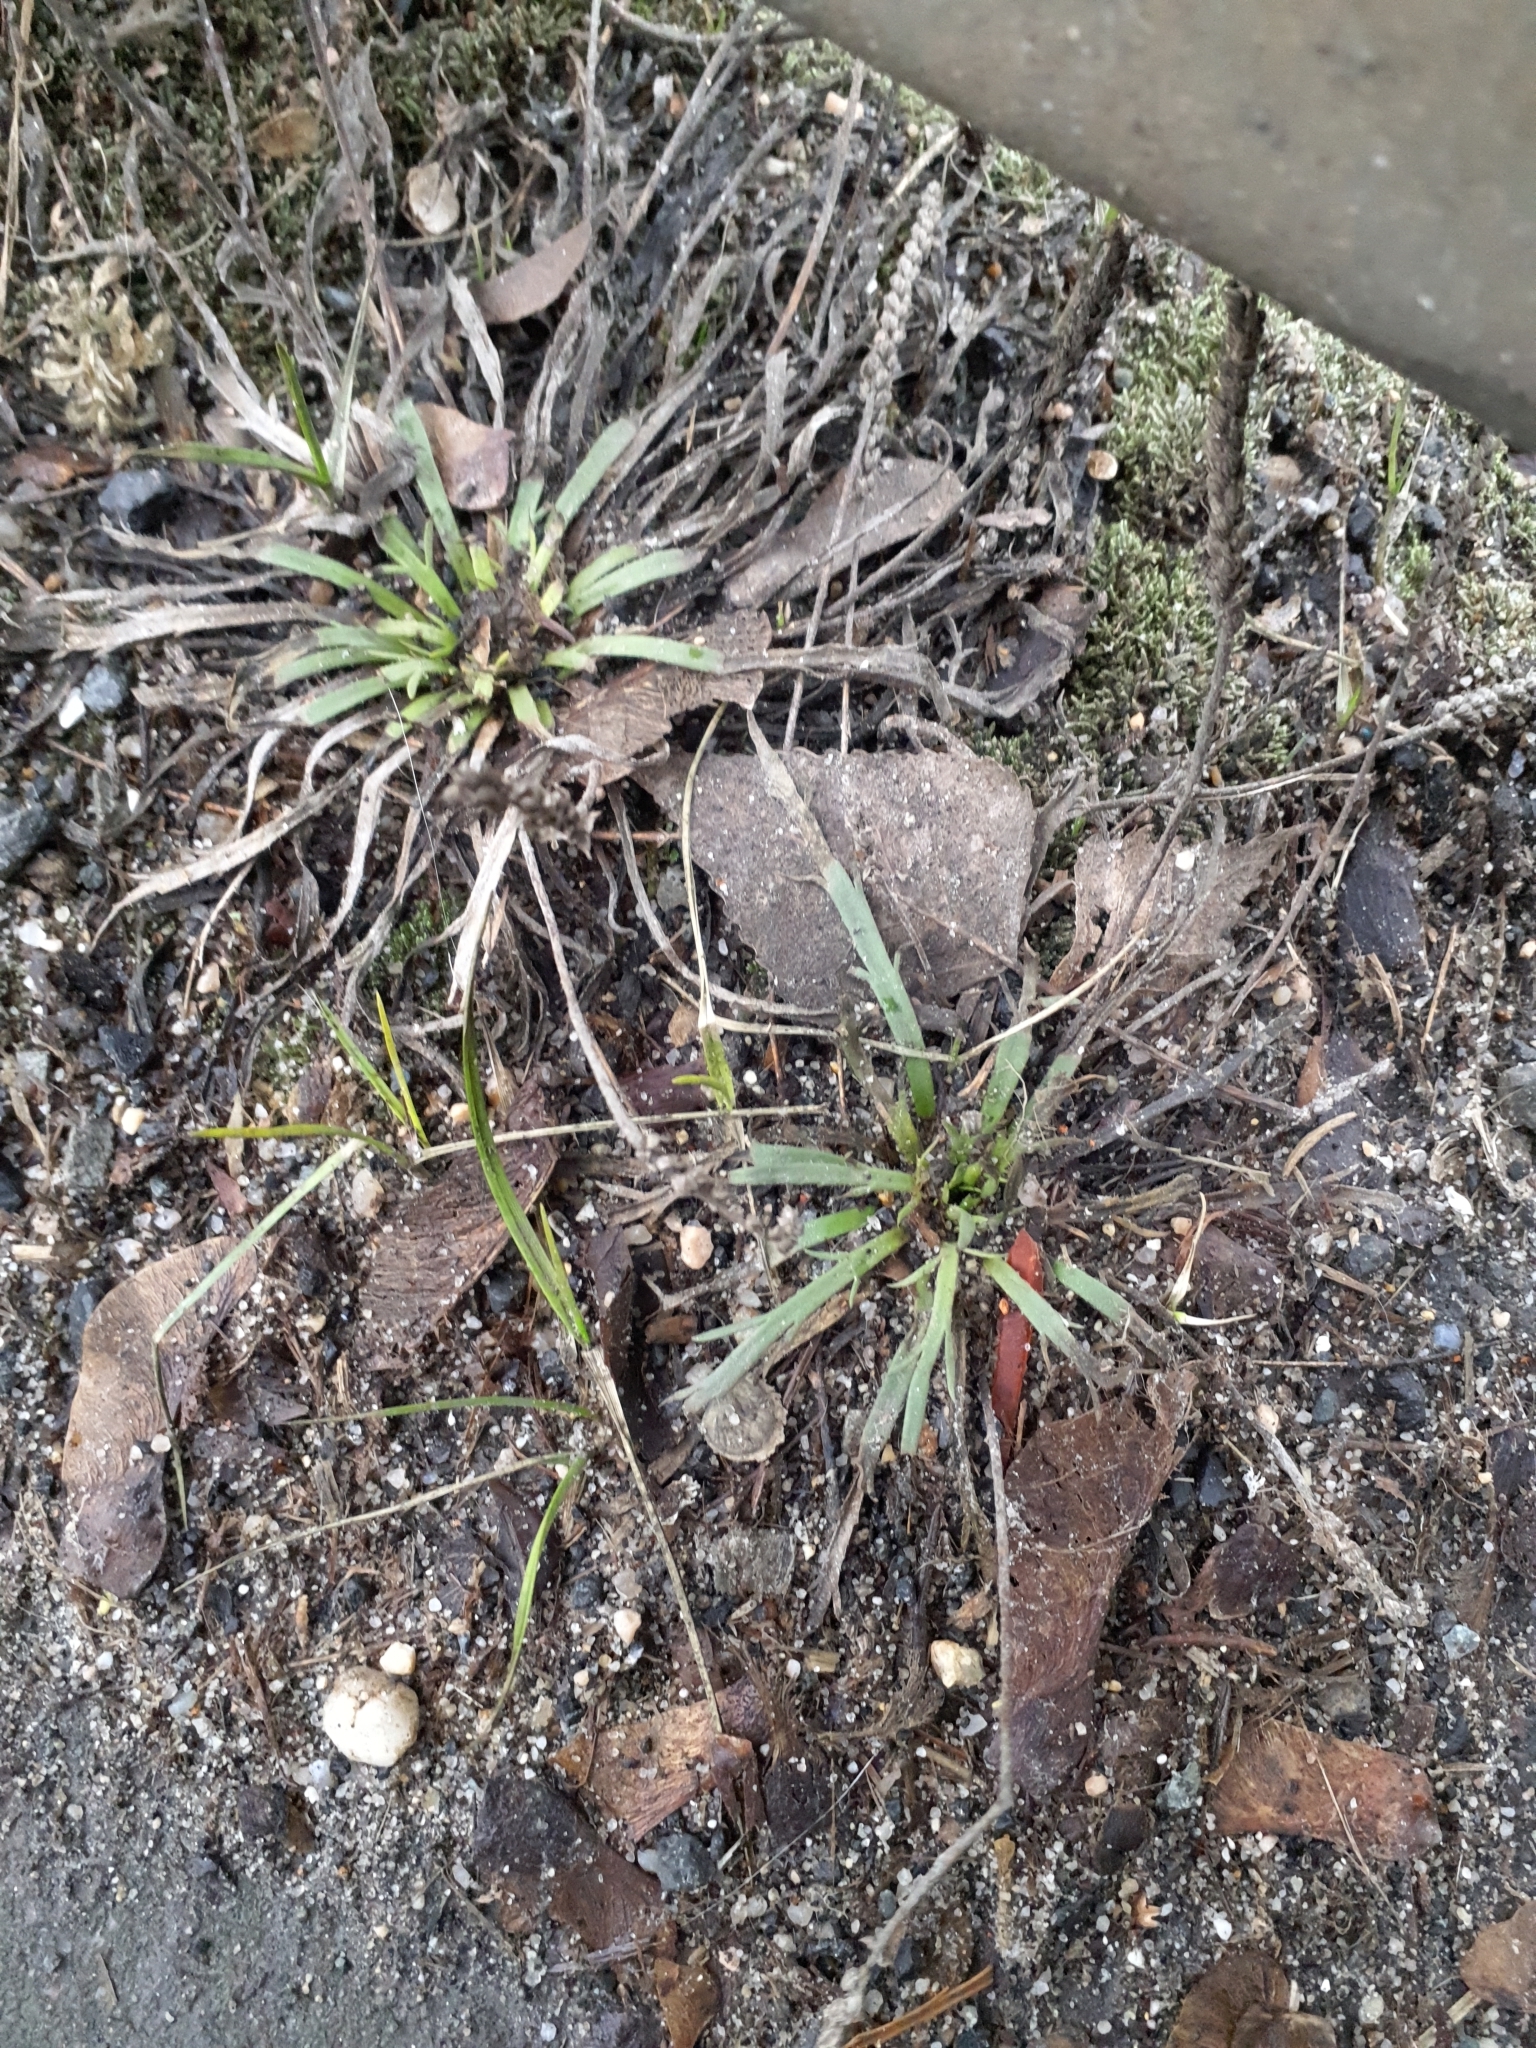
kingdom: Plantae
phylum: Tracheophyta
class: Magnoliopsida
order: Lamiales
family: Plantaginaceae
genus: Plantago
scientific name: Plantago coronopus
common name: Buck's-horn plantain
